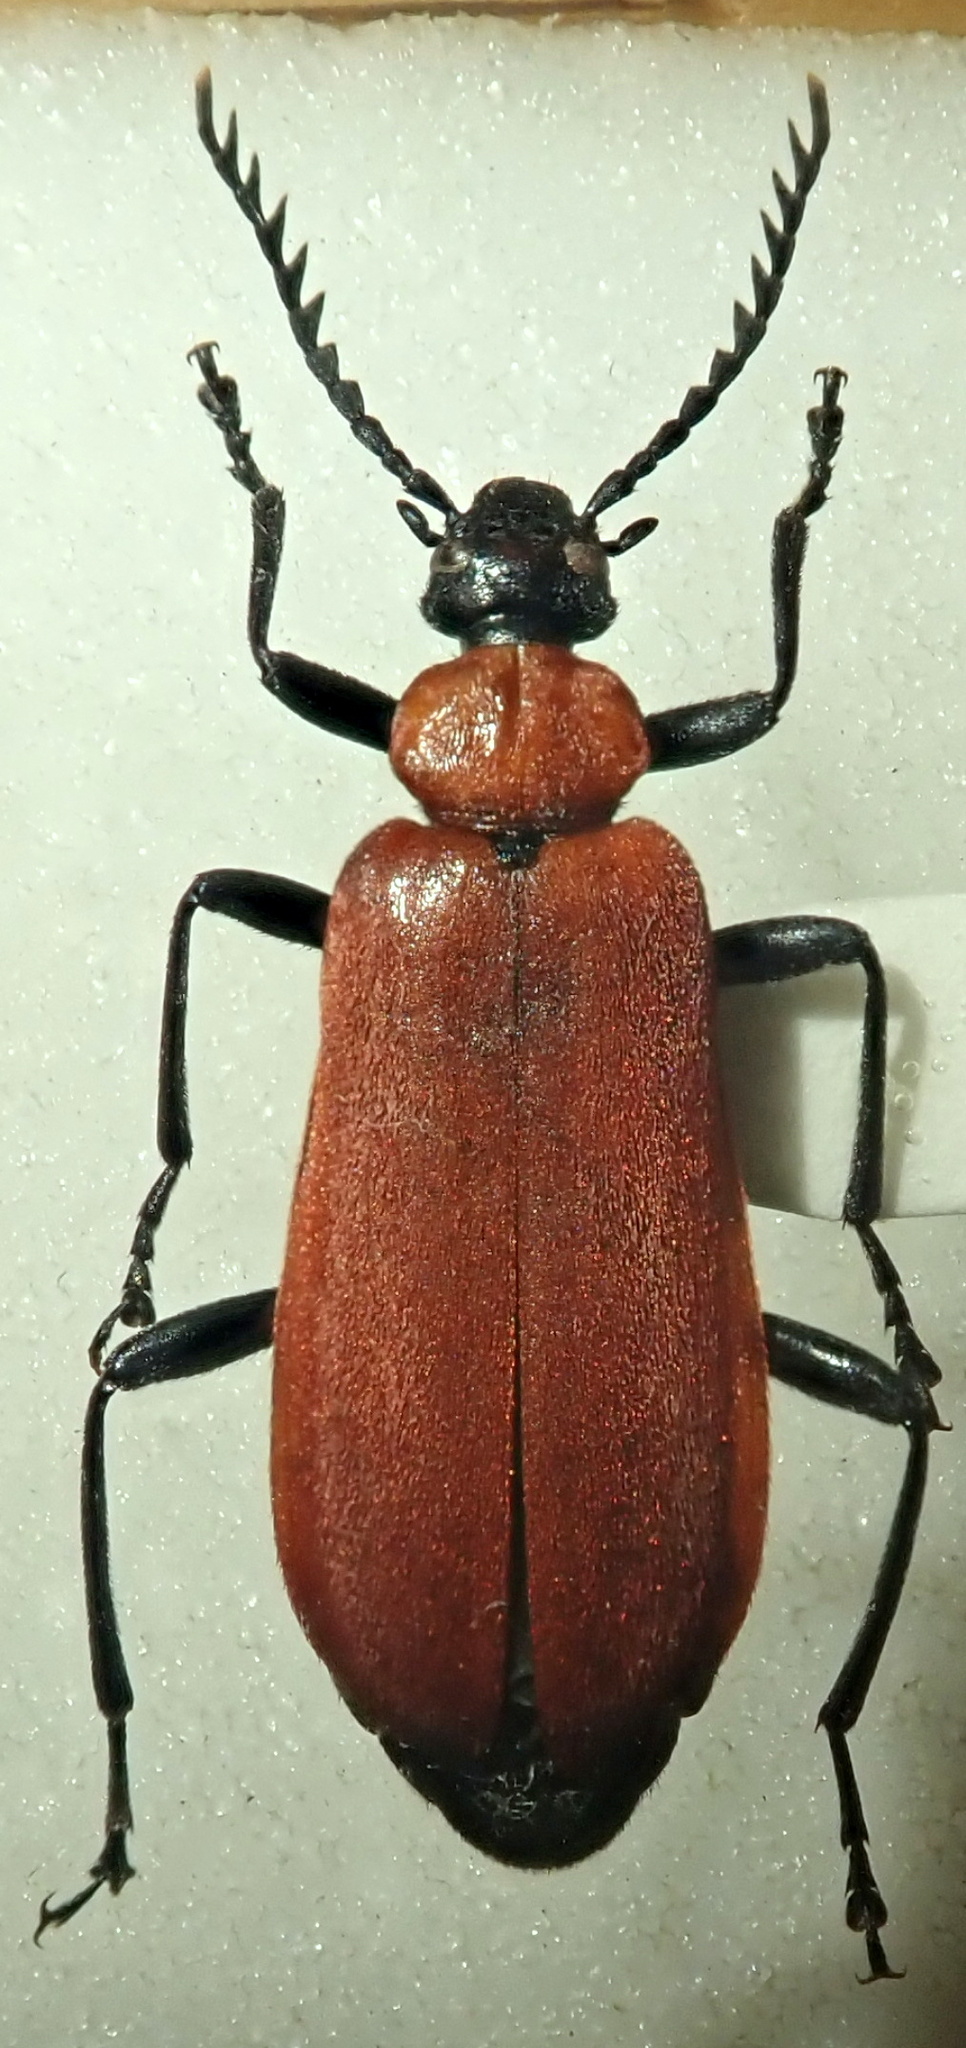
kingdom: Animalia
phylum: Arthropoda
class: Insecta
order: Coleoptera
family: Pyrochroidae
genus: Pyrochroa
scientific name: Pyrochroa coccinea
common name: Black-headed cardinal beetle
